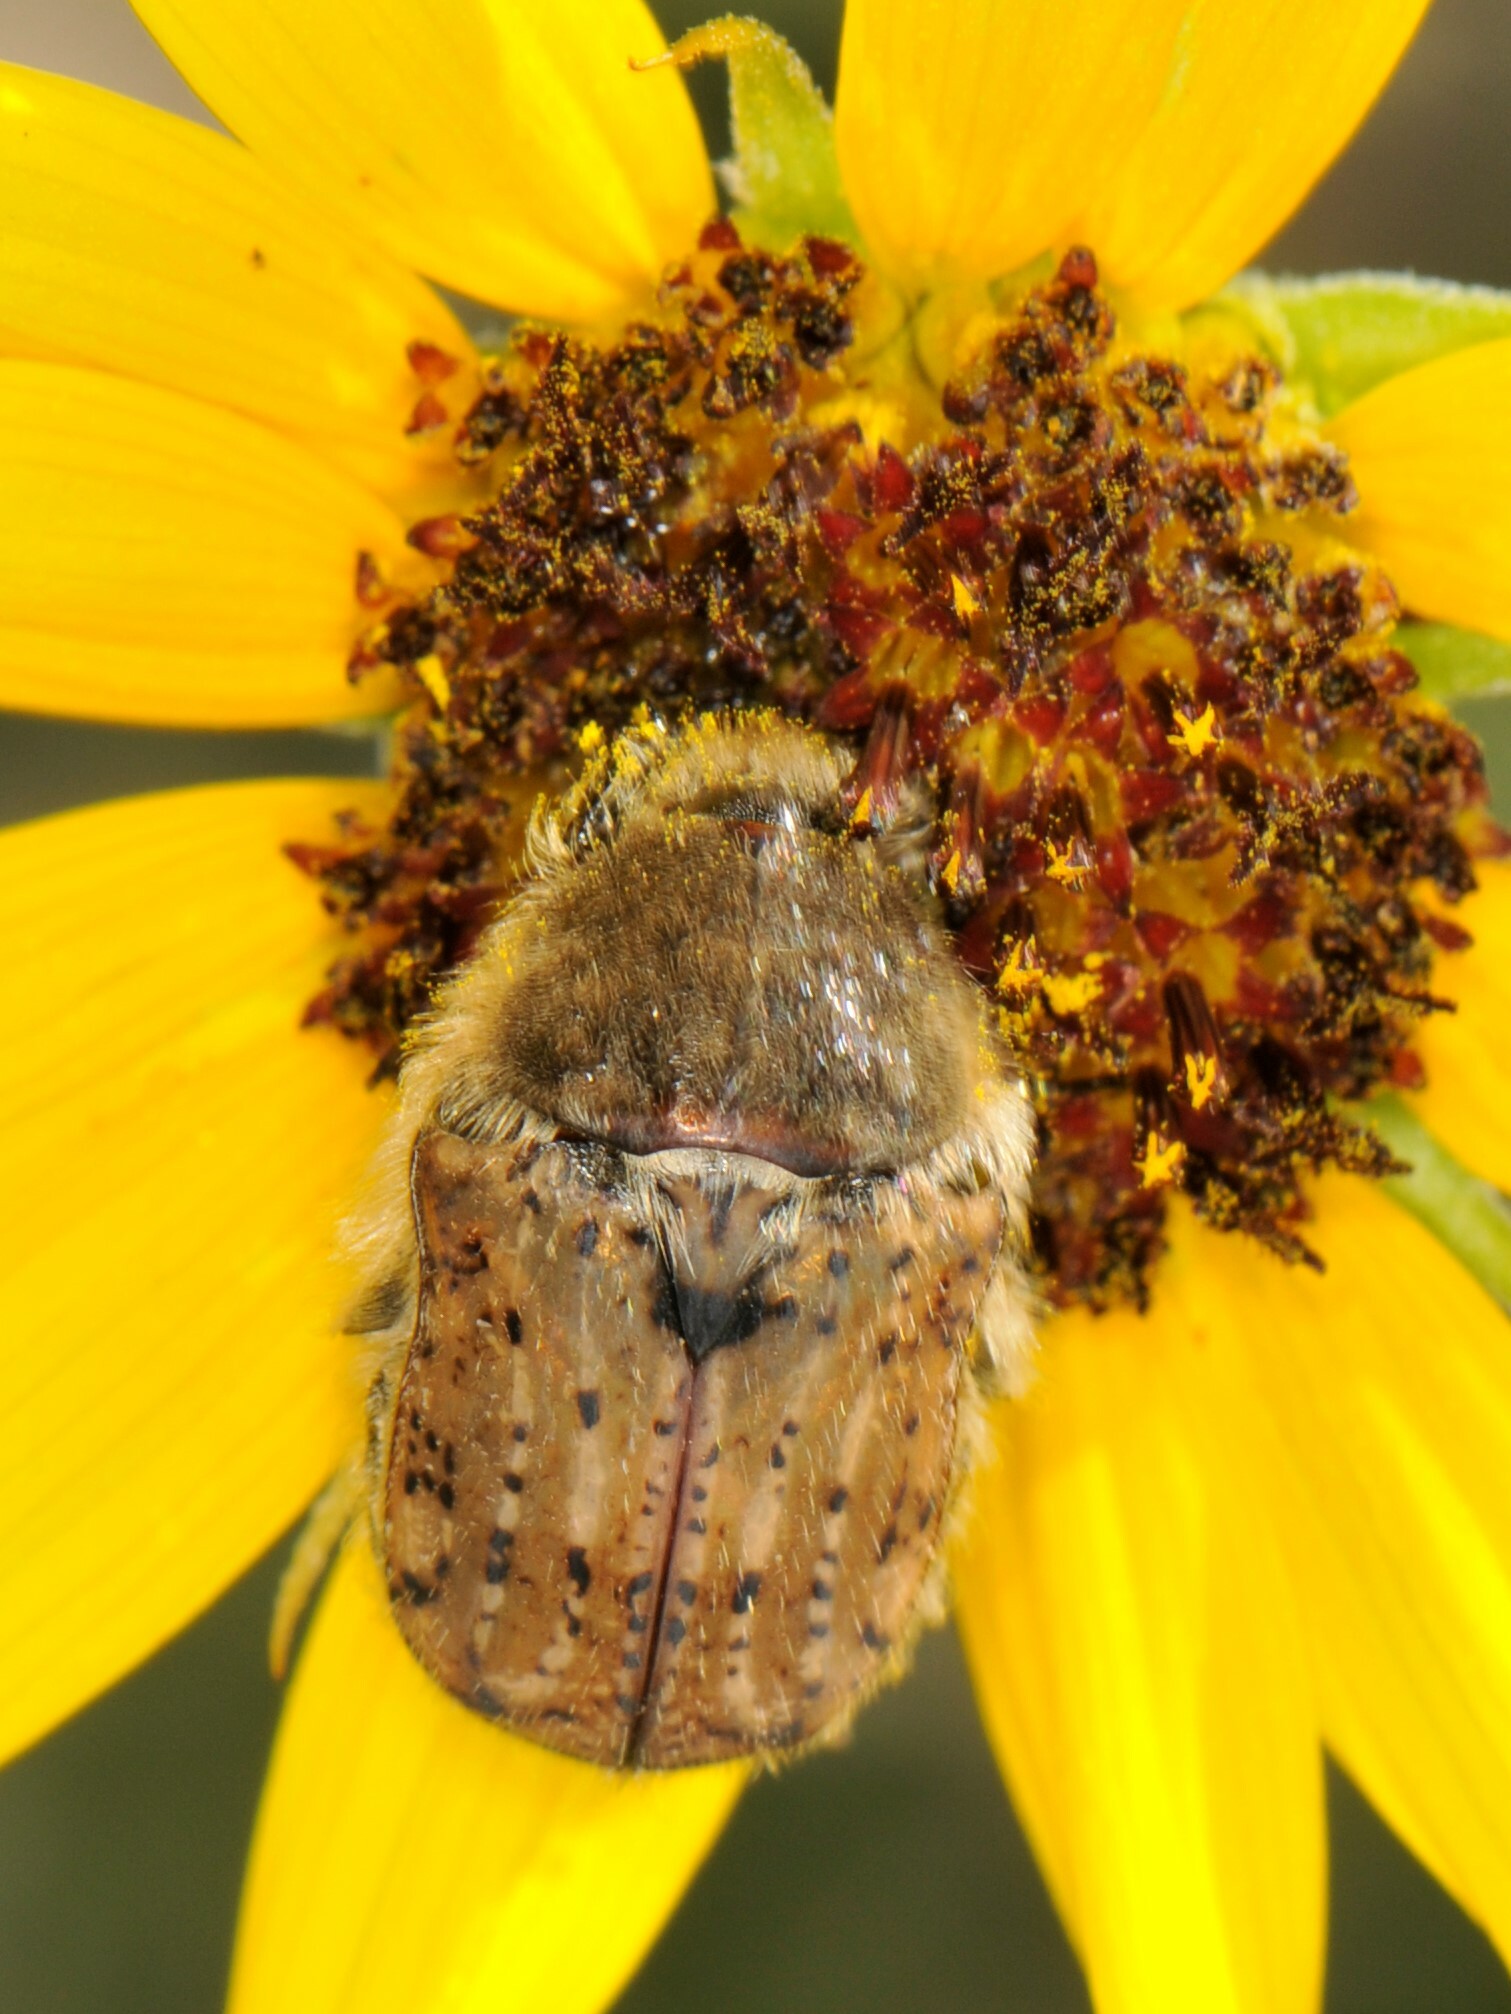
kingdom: Animalia
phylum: Arthropoda
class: Insecta
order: Coleoptera
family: Scarabaeidae
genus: Euphoria
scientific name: Euphoria inda
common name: Bumble flower beetle
